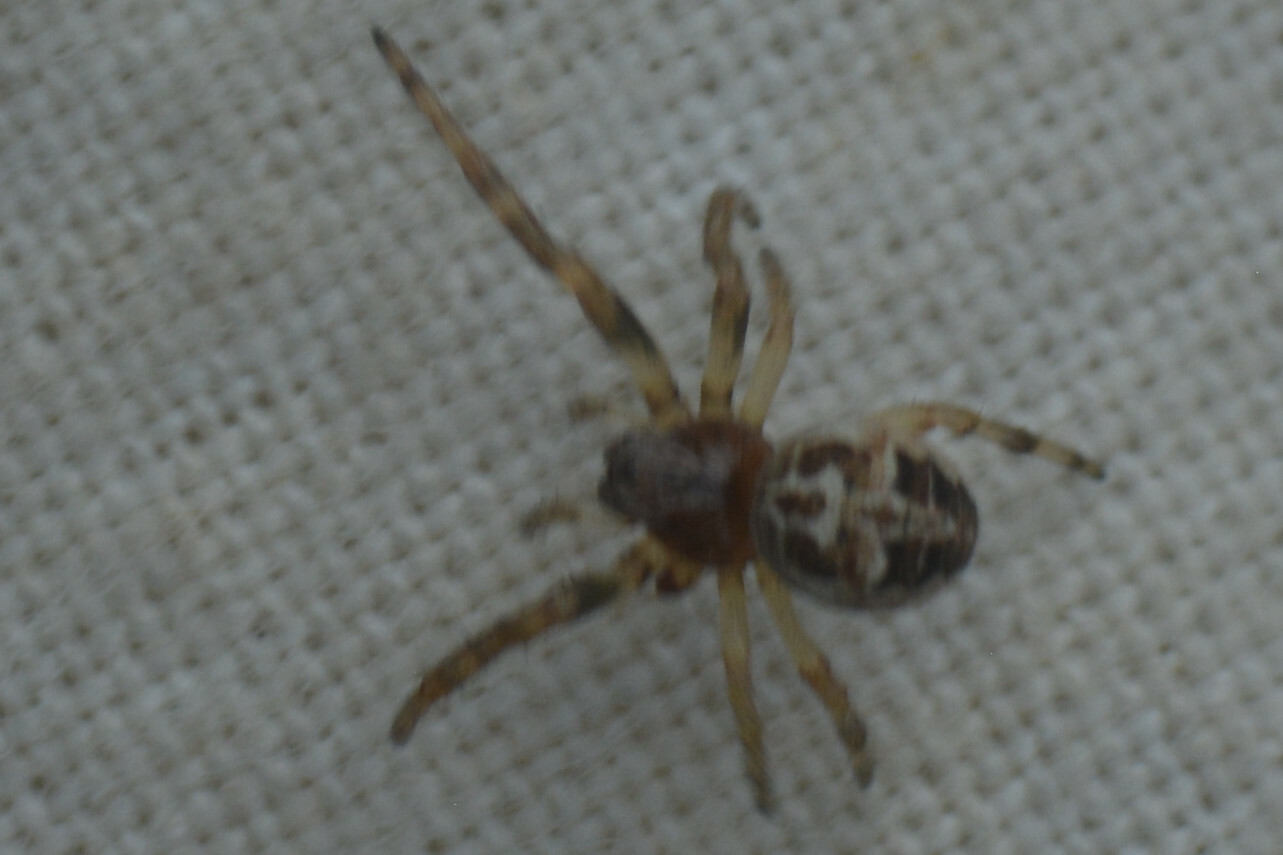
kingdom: Animalia
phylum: Arthropoda
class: Arachnida
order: Araneae
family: Araneidae
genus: Larinioides
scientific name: Larinioides cornutus
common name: Furrow orbweaver
